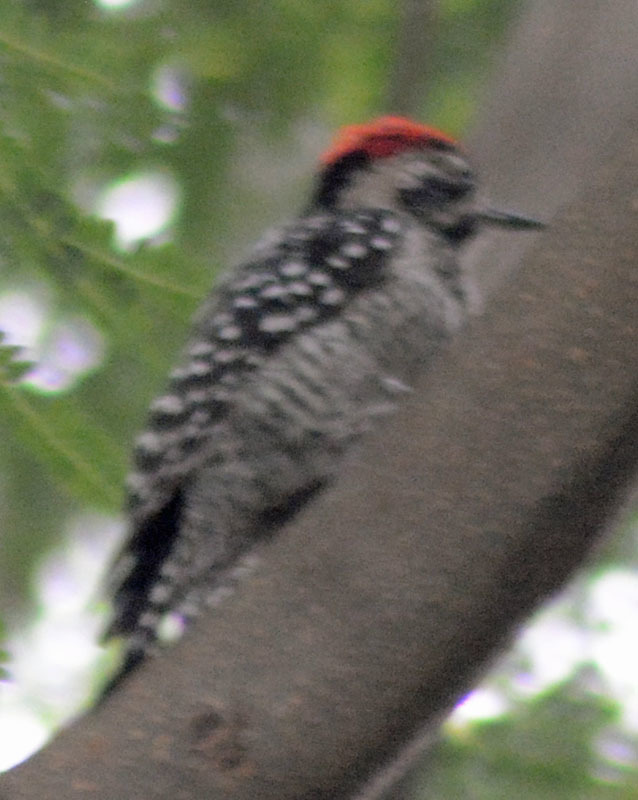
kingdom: Animalia
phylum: Chordata
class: Aves
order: Piciformes
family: Picidae
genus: Dryobates
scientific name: Dryobates scalaris
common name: Ladder-backed woodpecker
